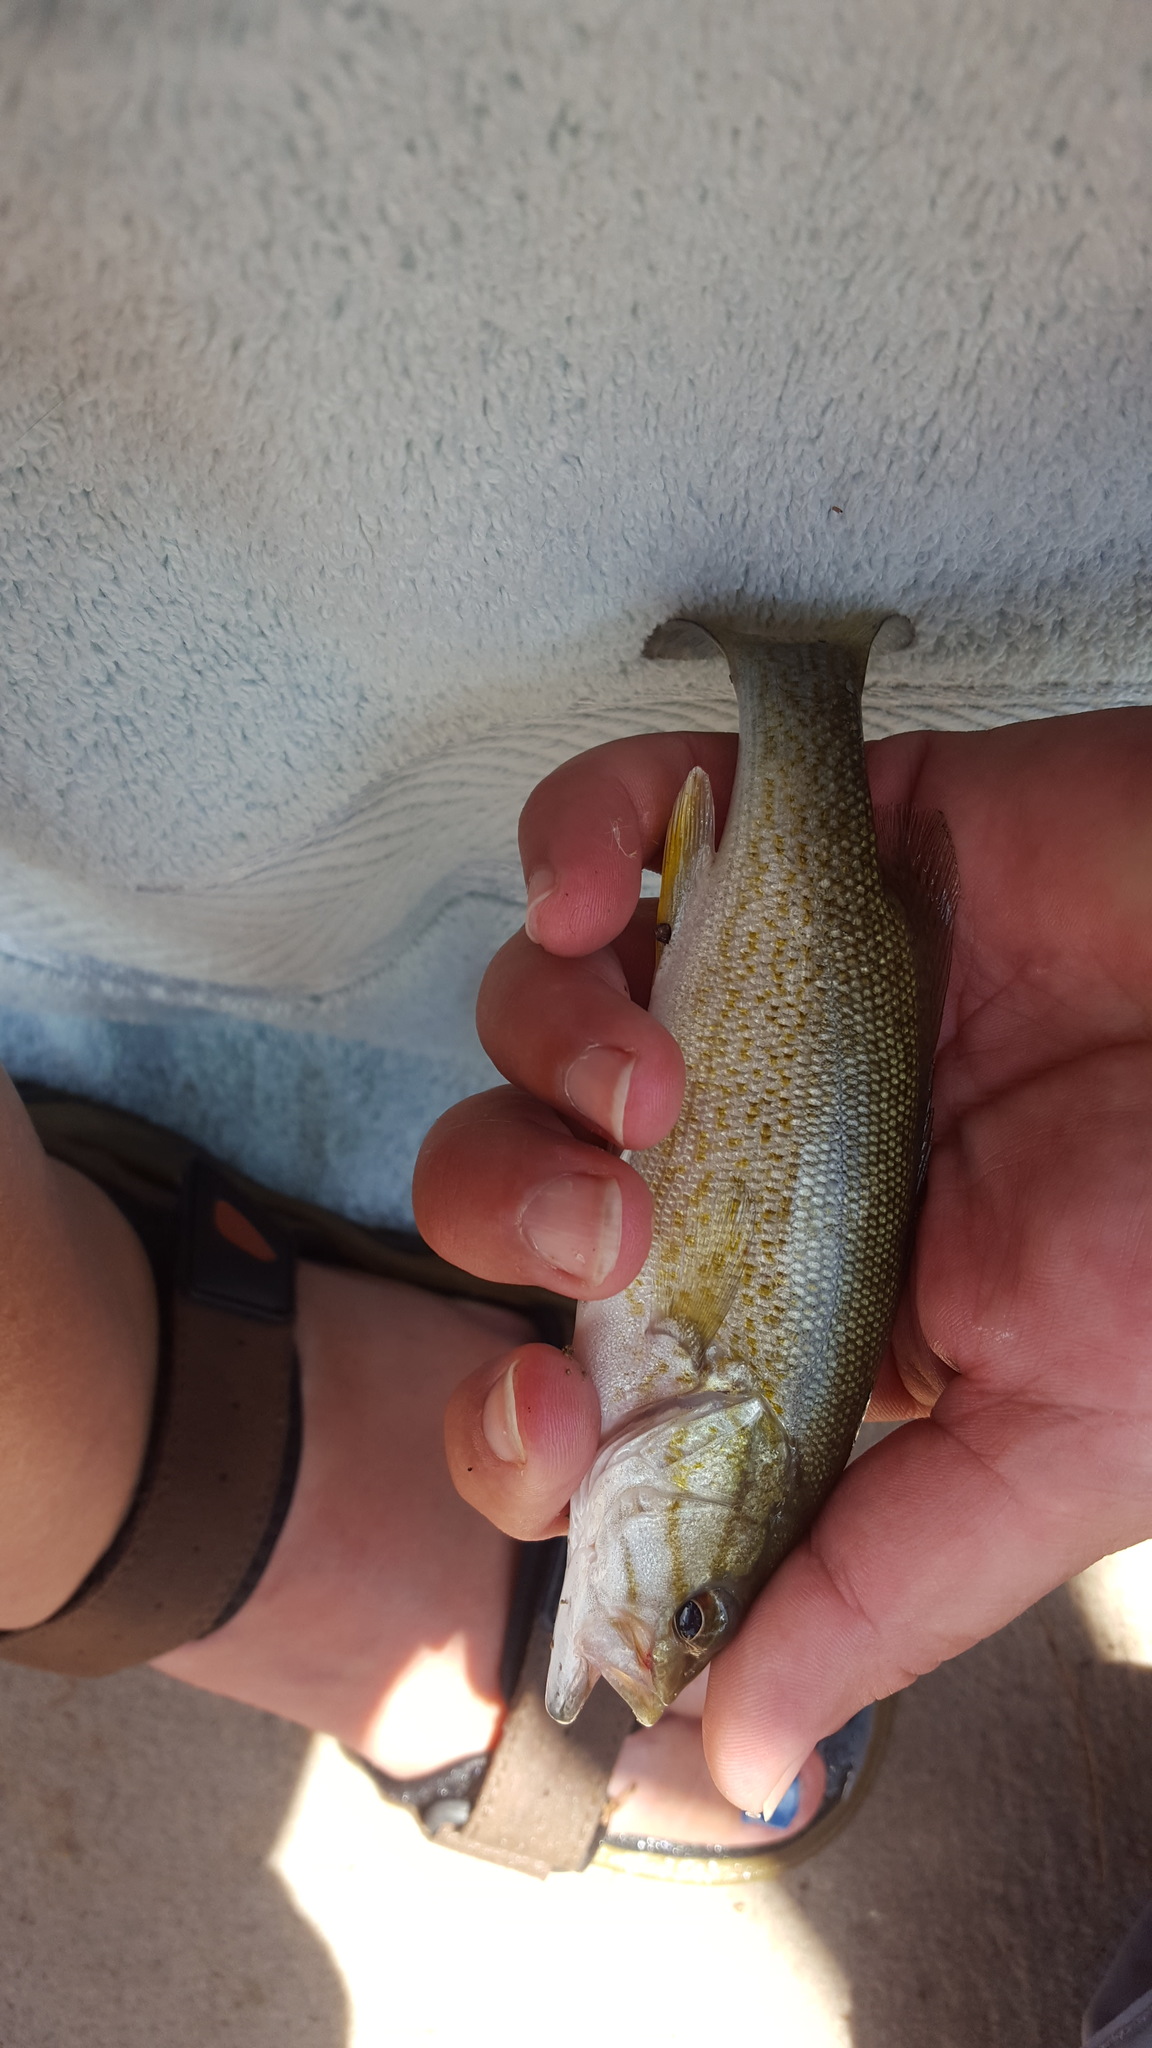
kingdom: Animalia
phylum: Chordata
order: Perciformes
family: Centrarchidae
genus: Micropterus
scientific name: Micropterus dolomieu
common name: Smallmouth bass
